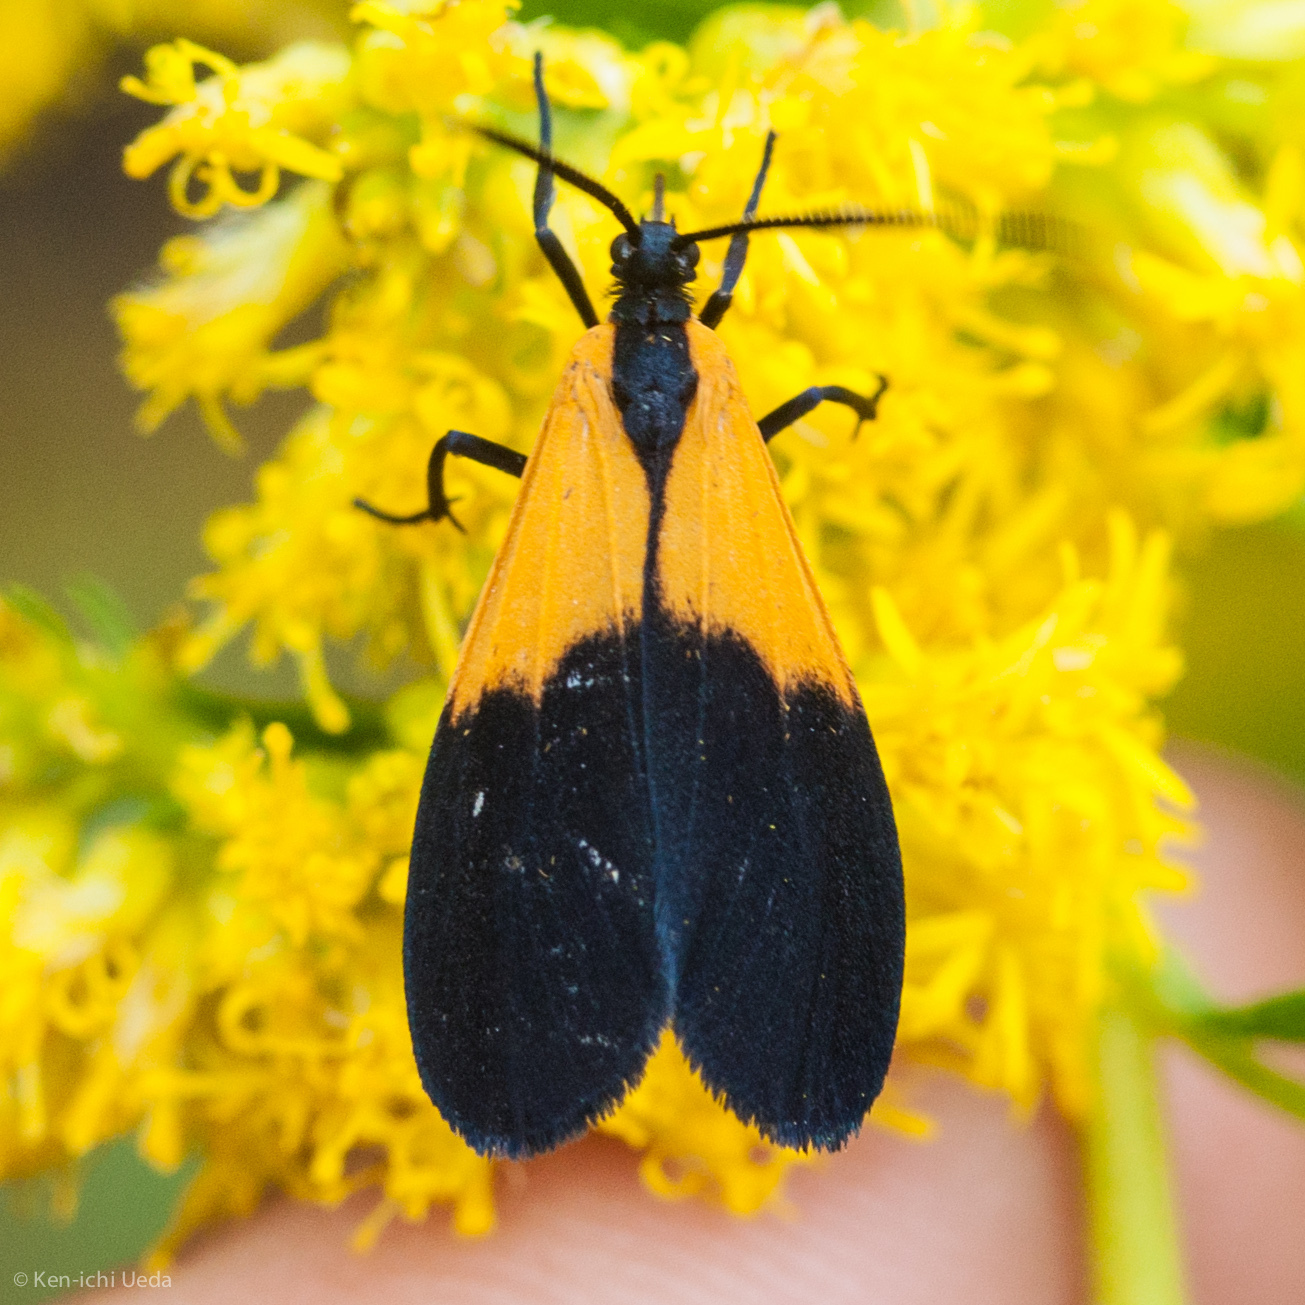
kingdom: Animalia
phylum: Arthropoda
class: Insecta
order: Lepidoptera
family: Erebidae
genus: Lycomorpha
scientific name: Lycomorpha pholus
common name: Black-and-yellow lichen moth
